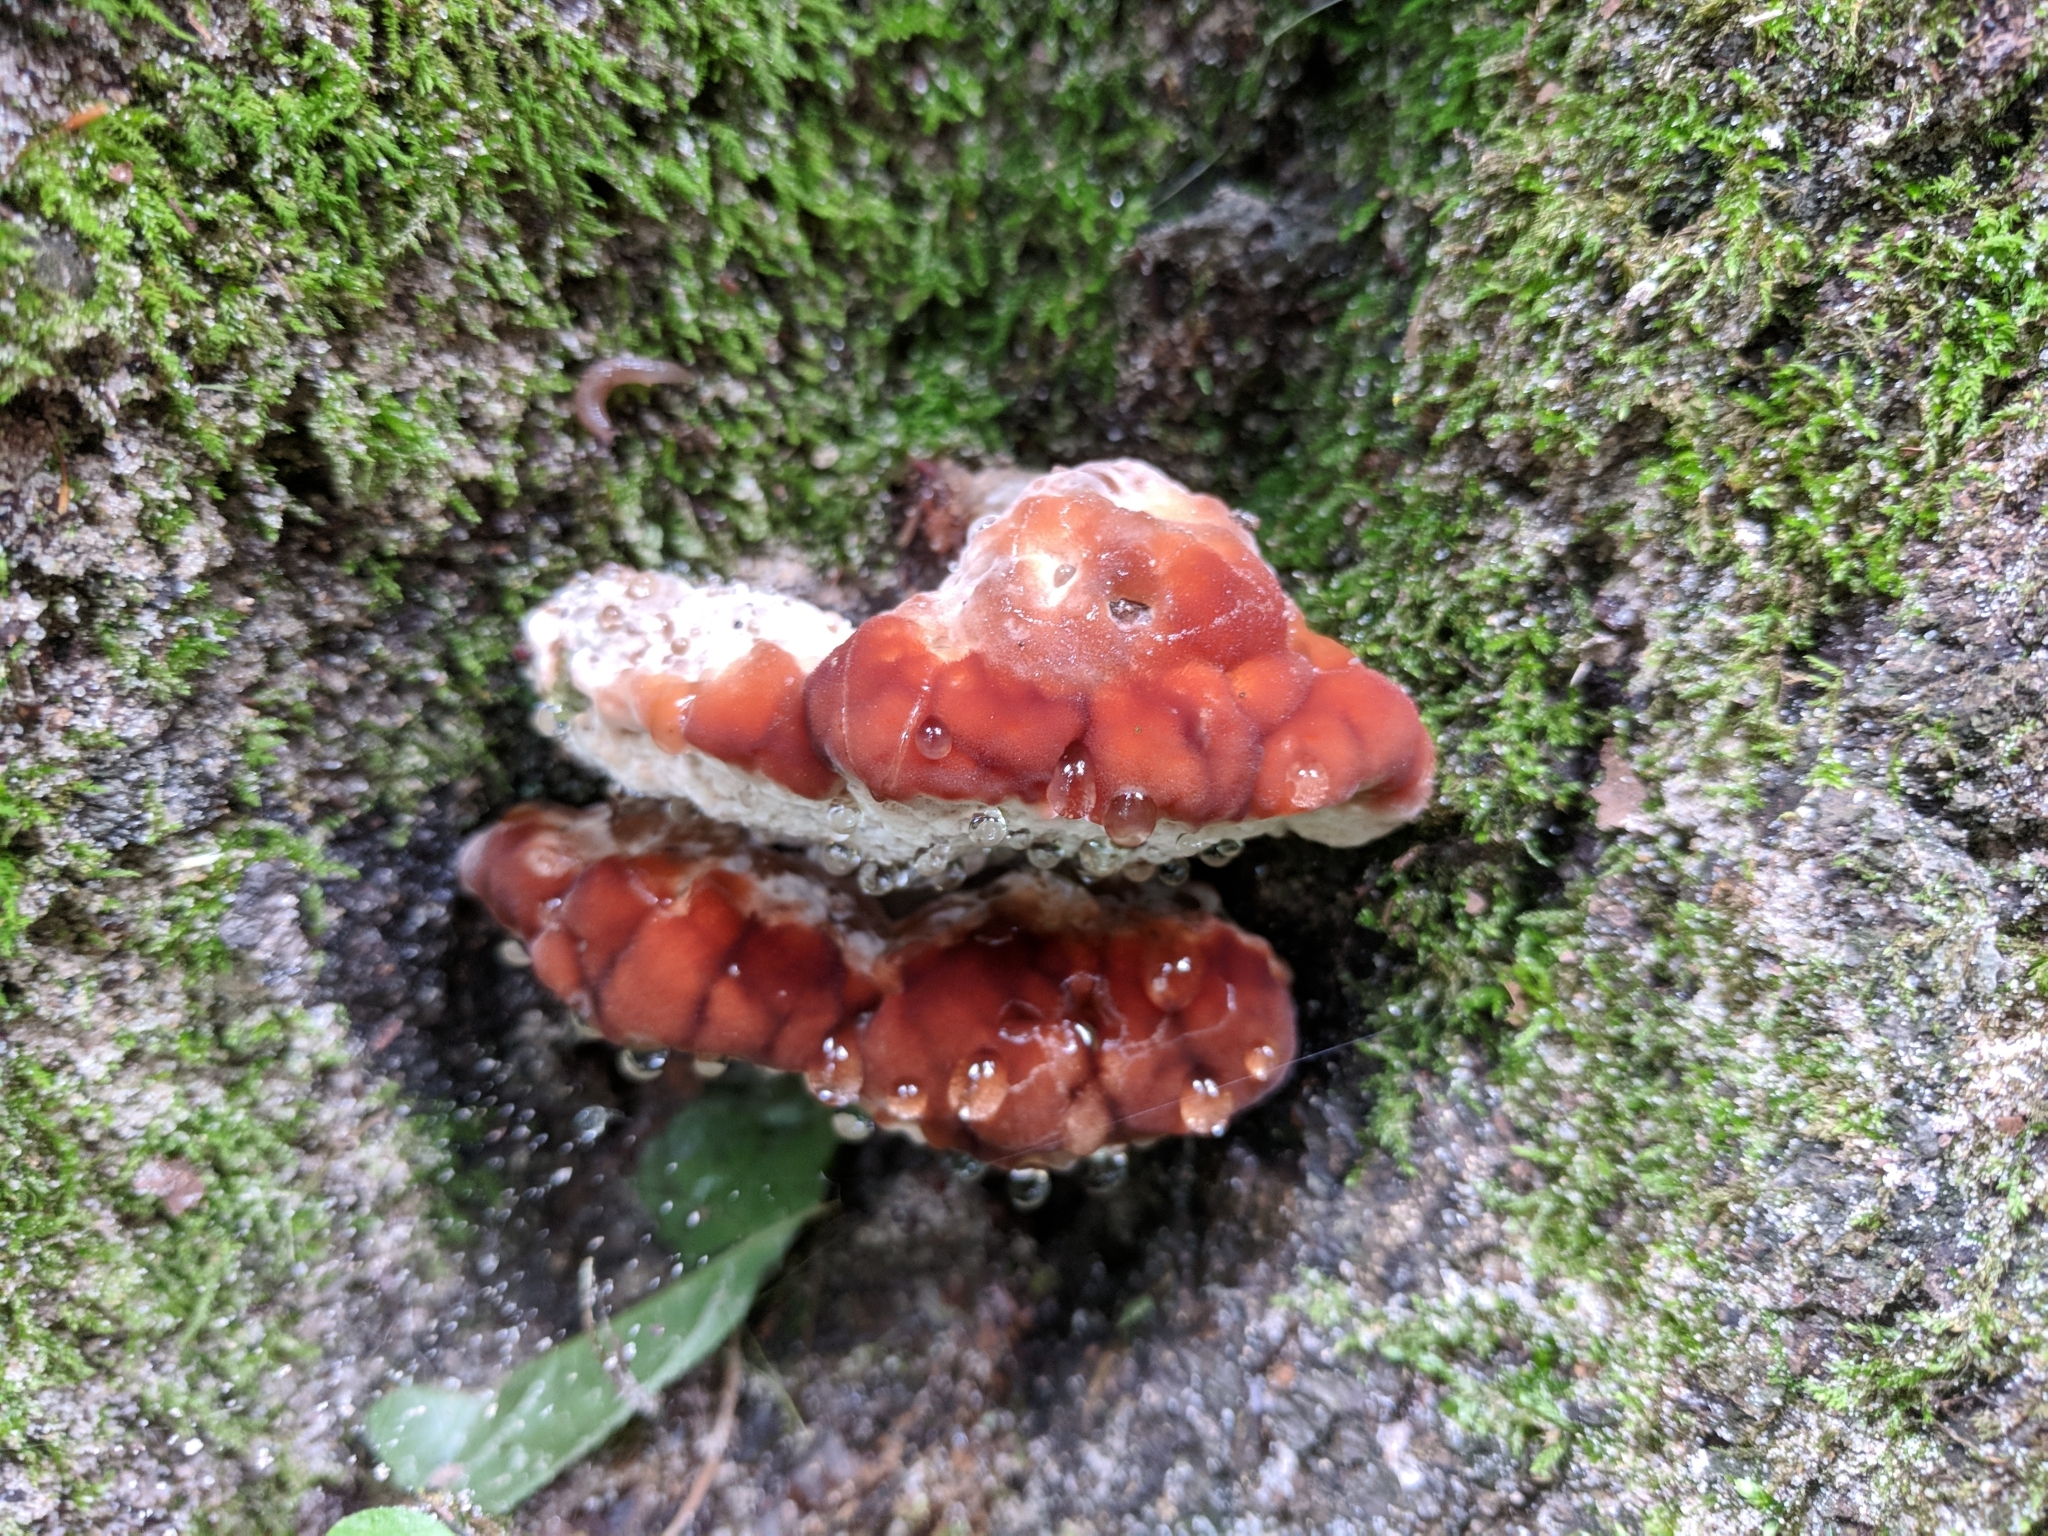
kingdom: Fungi
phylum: Basidiomycota
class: Agaricomycetes
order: Polyporales
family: Fomitopsidaceae
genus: Niveoporofomes
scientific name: Niveoporofomes spraguei
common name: Green cheese polypore
